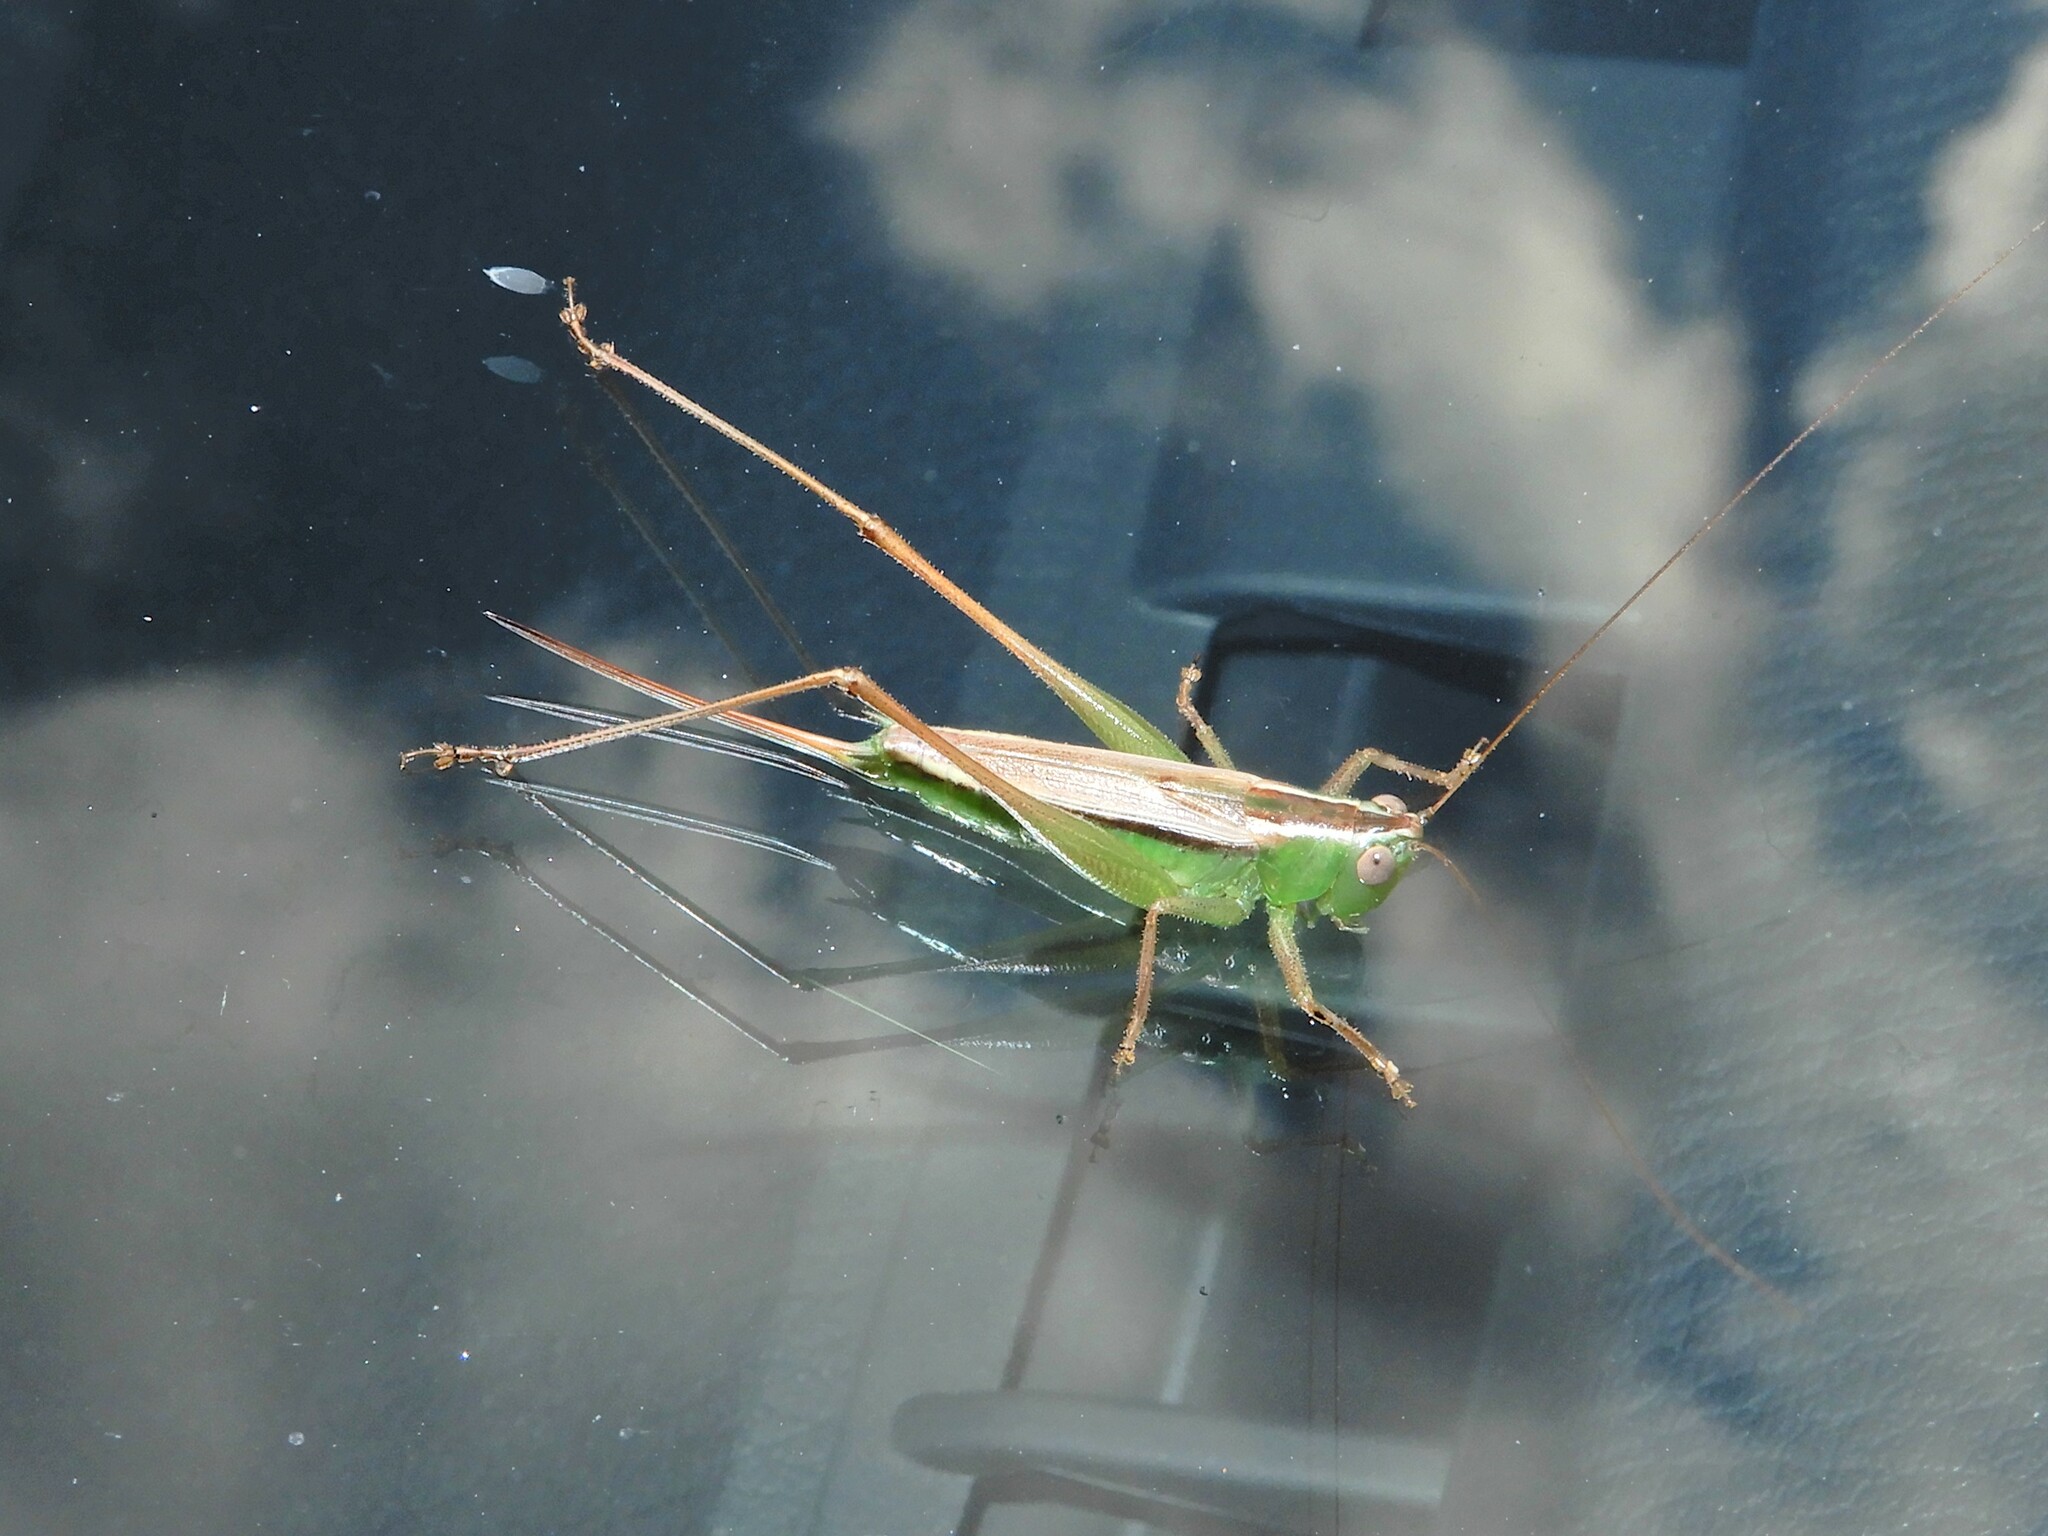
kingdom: Animalia
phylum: Arthropoda
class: Insecta
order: Orthoptera
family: Tettigoniidae
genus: Conocephalus
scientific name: Conocephalus albescens
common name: Whitish meadow katydid
